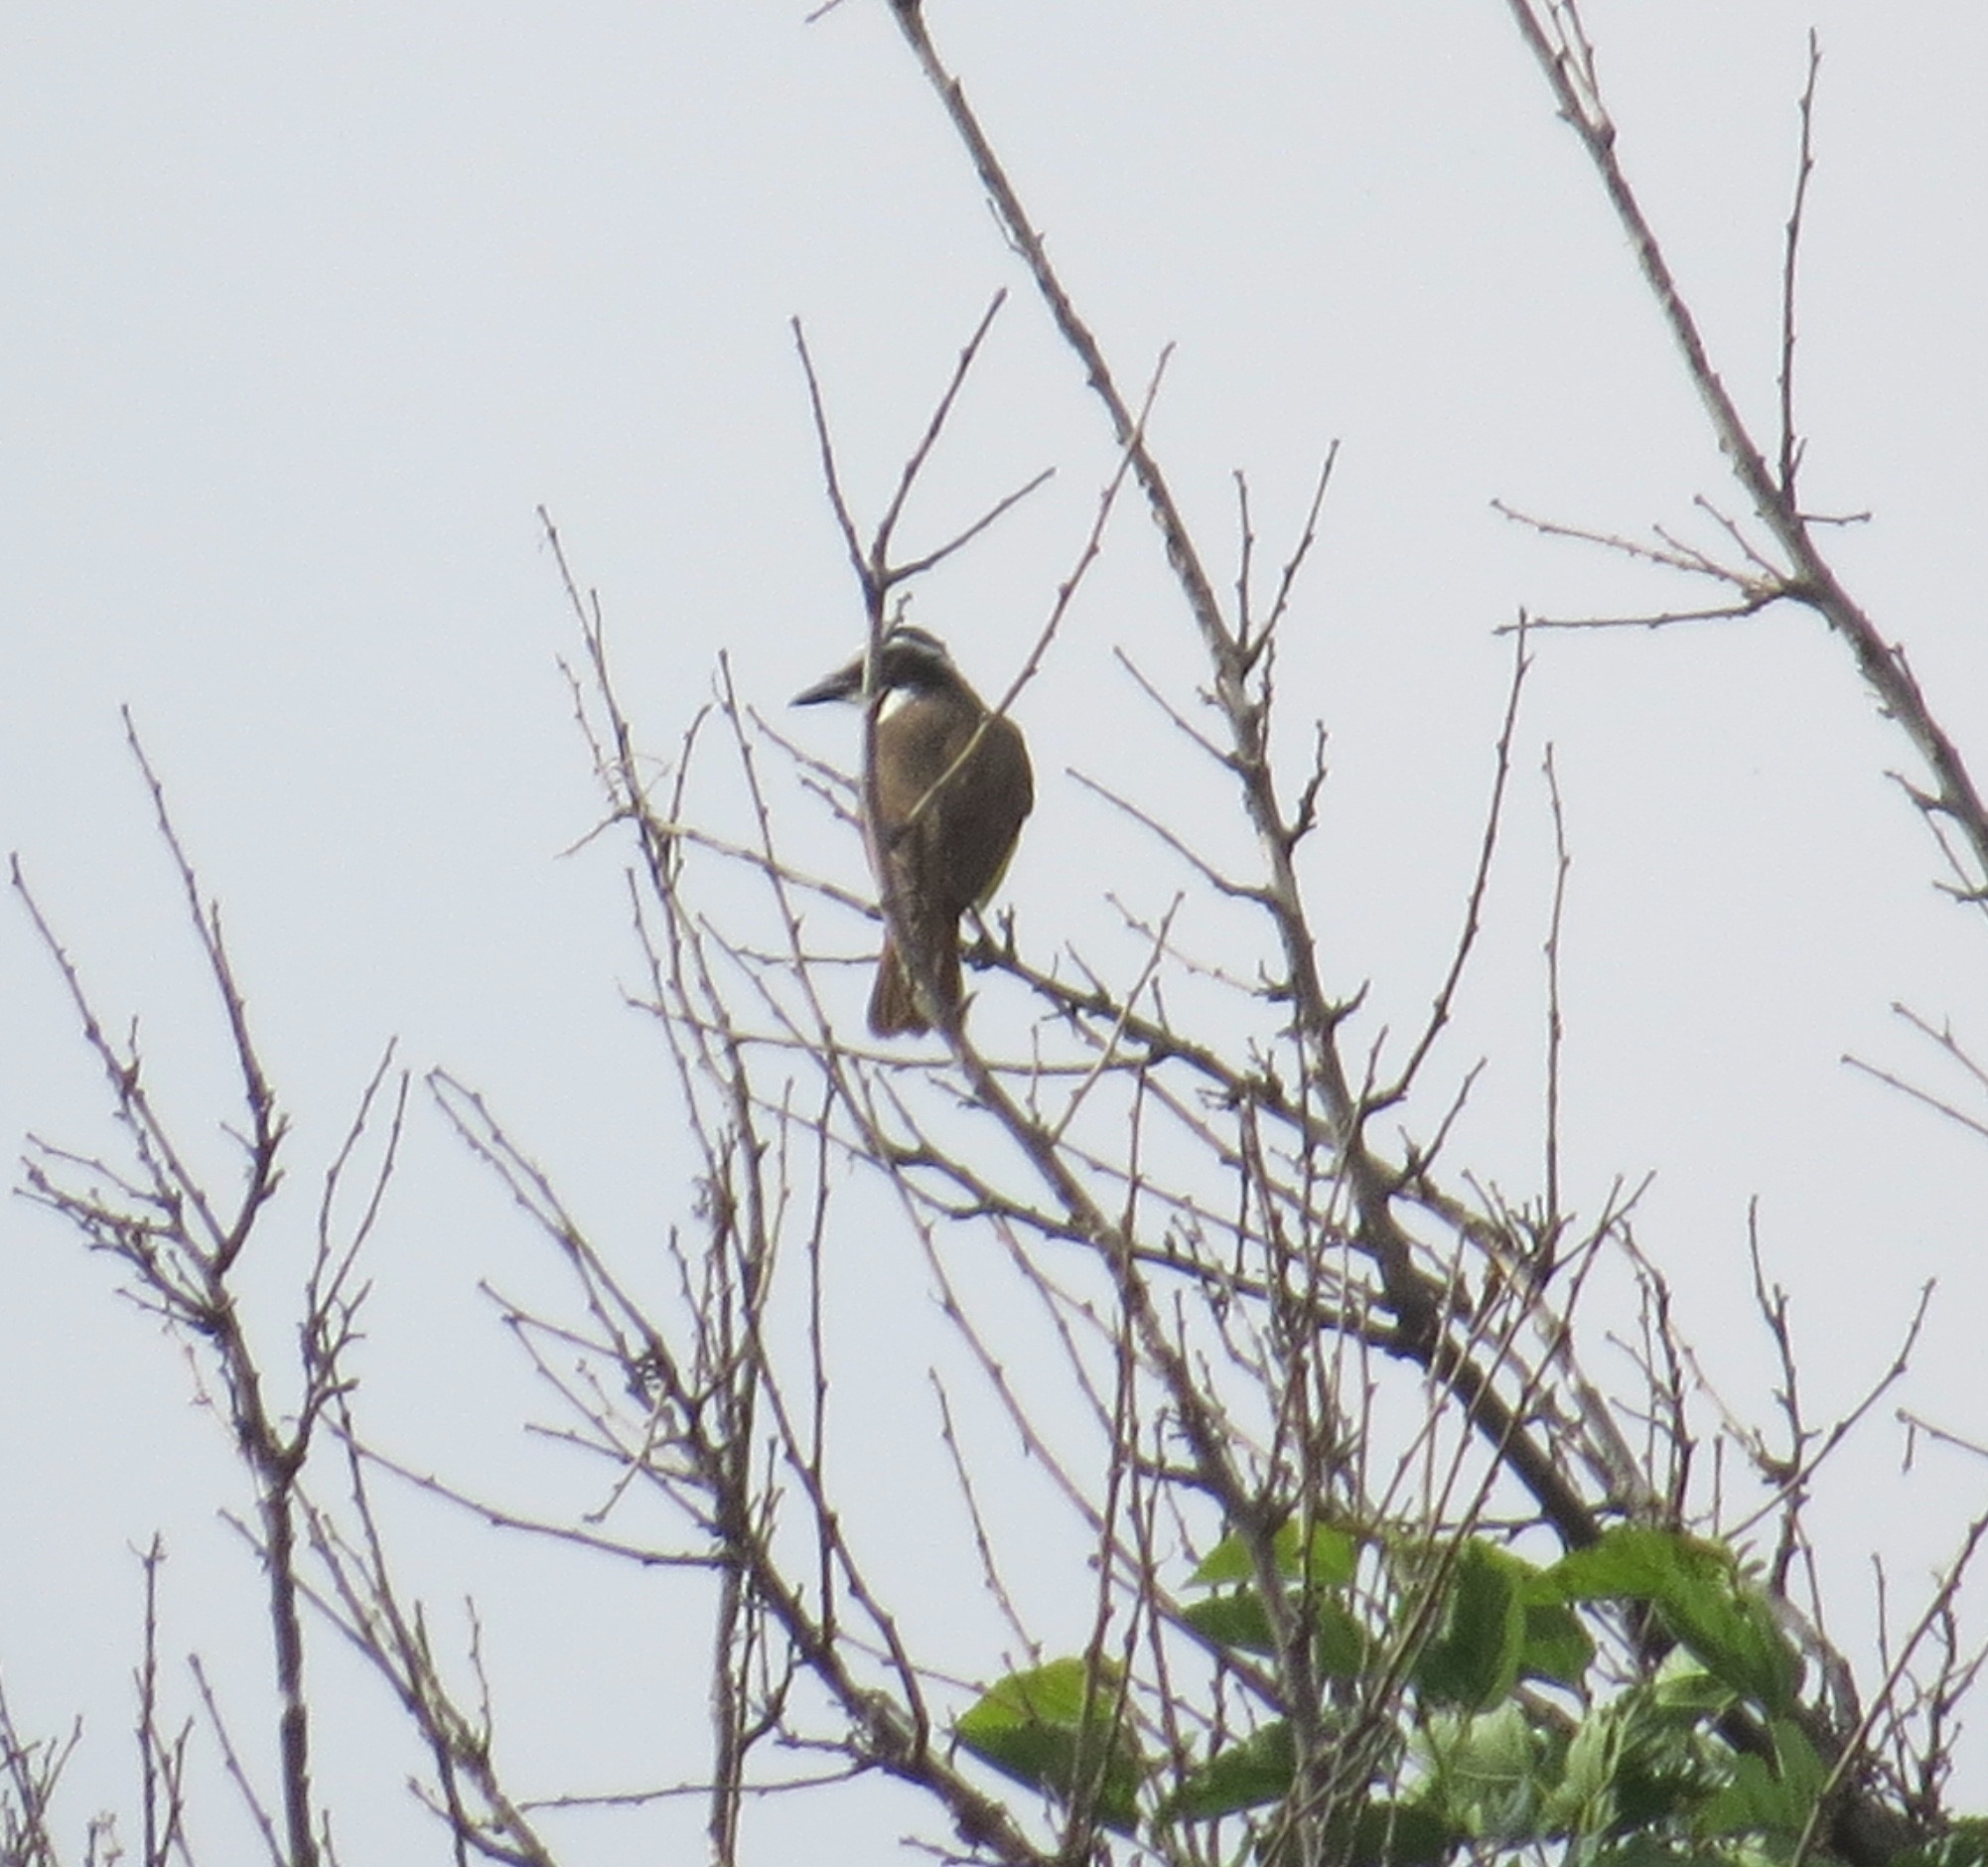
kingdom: Animalia
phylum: Chordata
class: Aves
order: Passeriformes
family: Tyrannidae
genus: Pitangus
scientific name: Pitangus sulphuratus
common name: Great kiskadee
